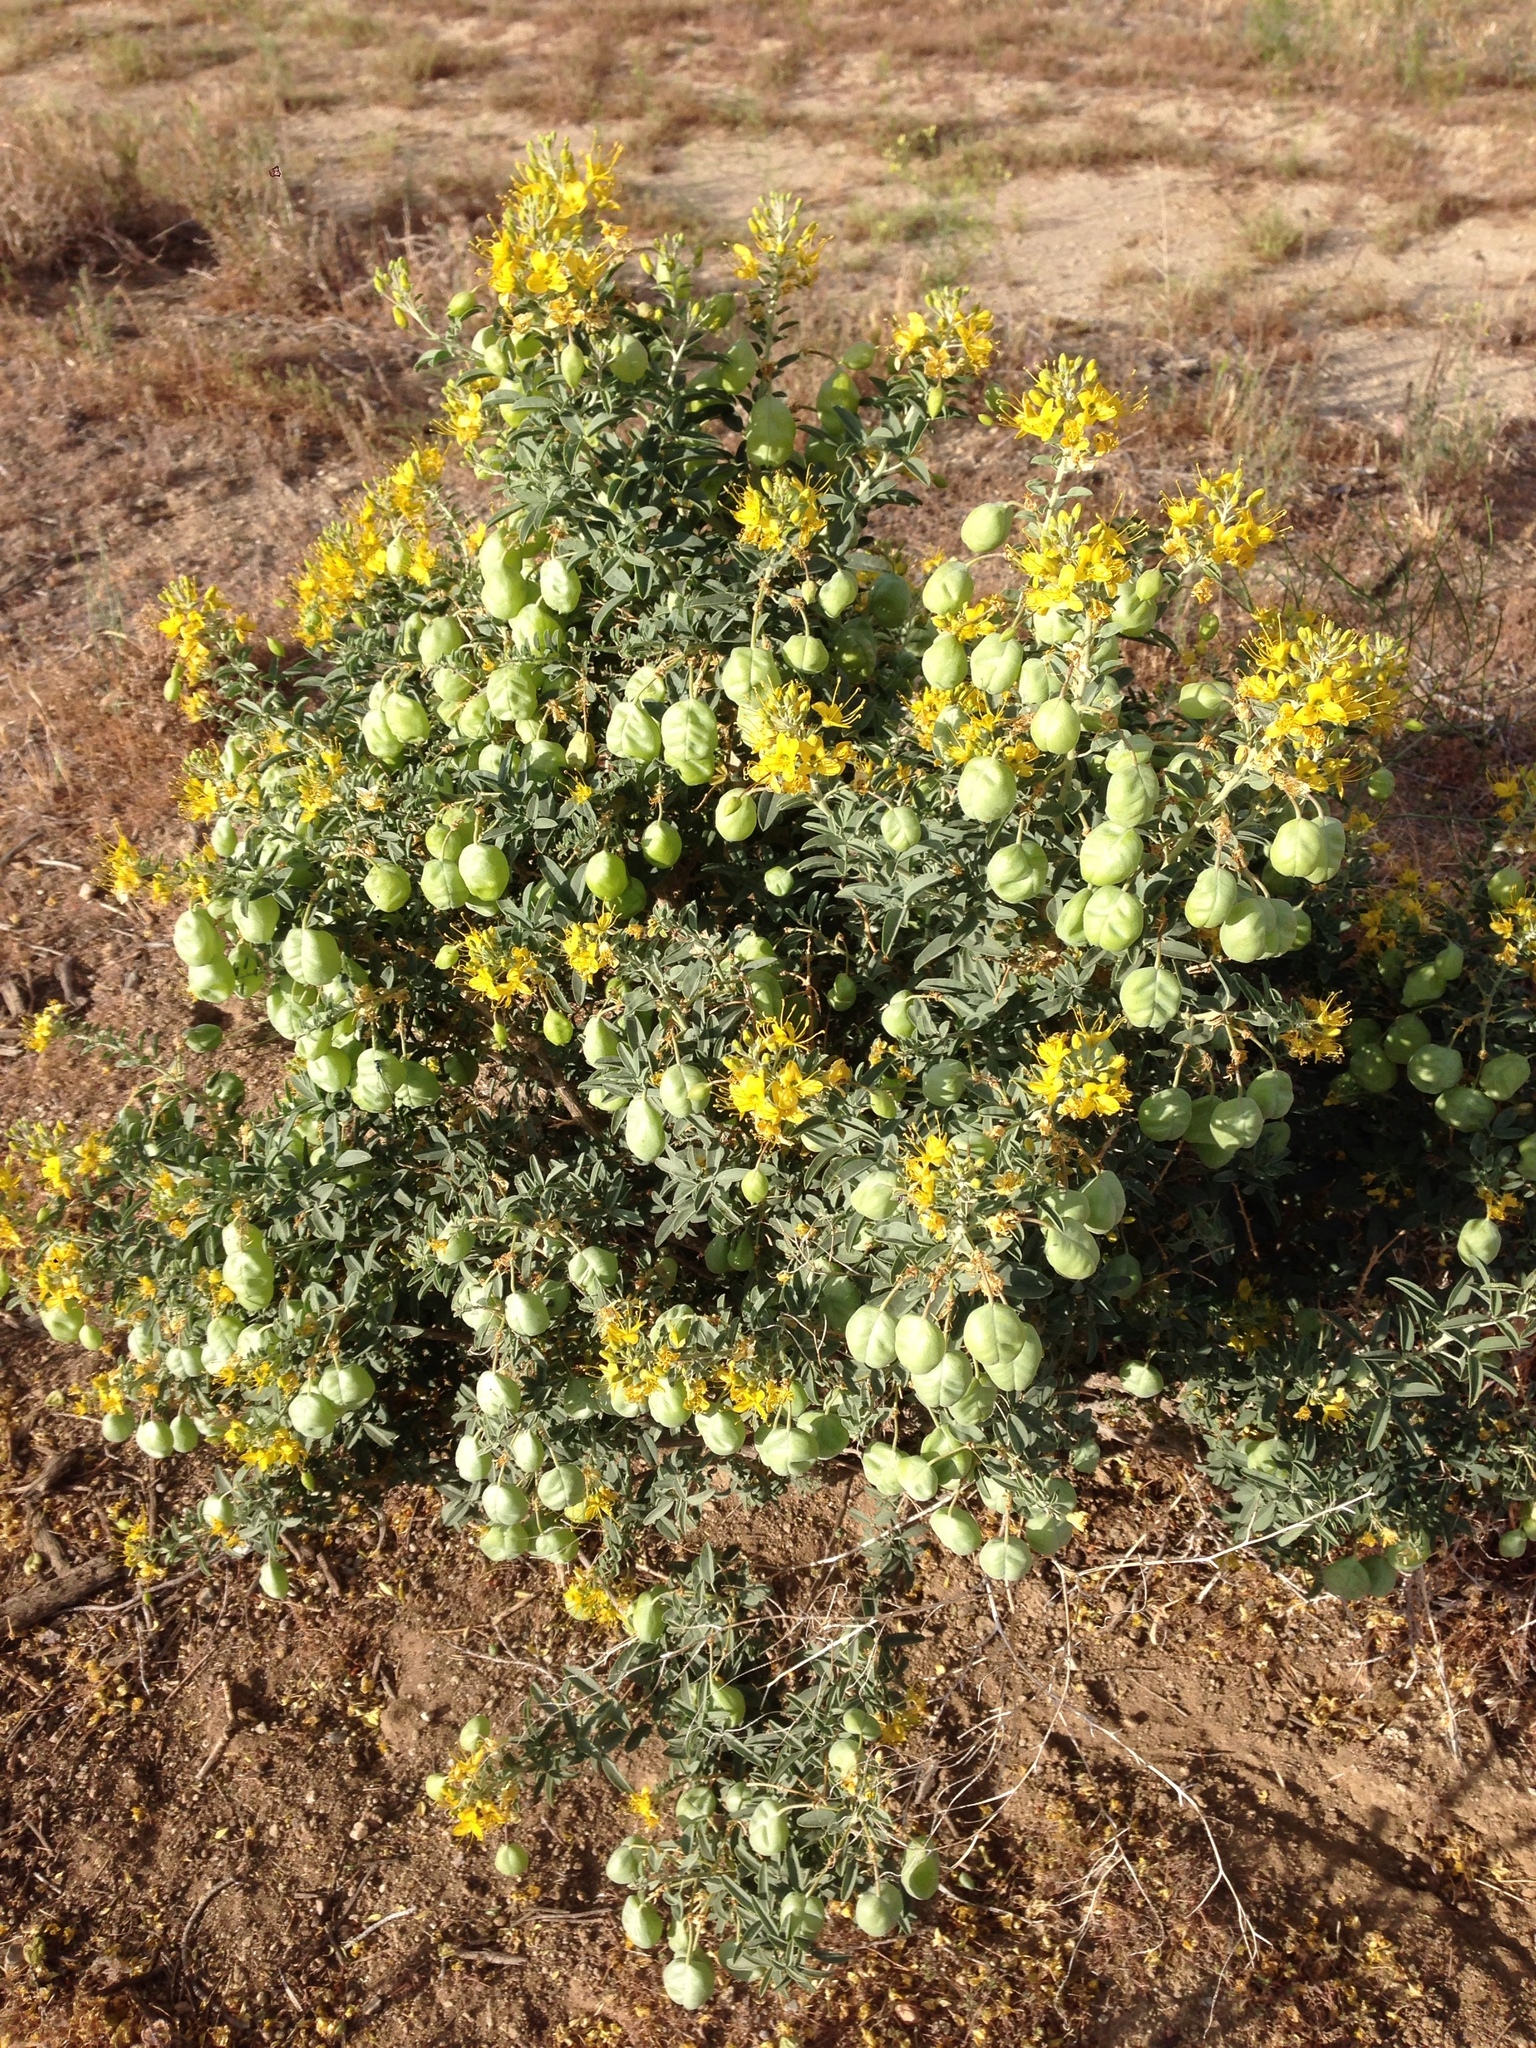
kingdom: Plantae
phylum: Tracheophyta
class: Magnoliopsida
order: Brassicales
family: Cleomaceae
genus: Cleomella
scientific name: Cleomella arborea
